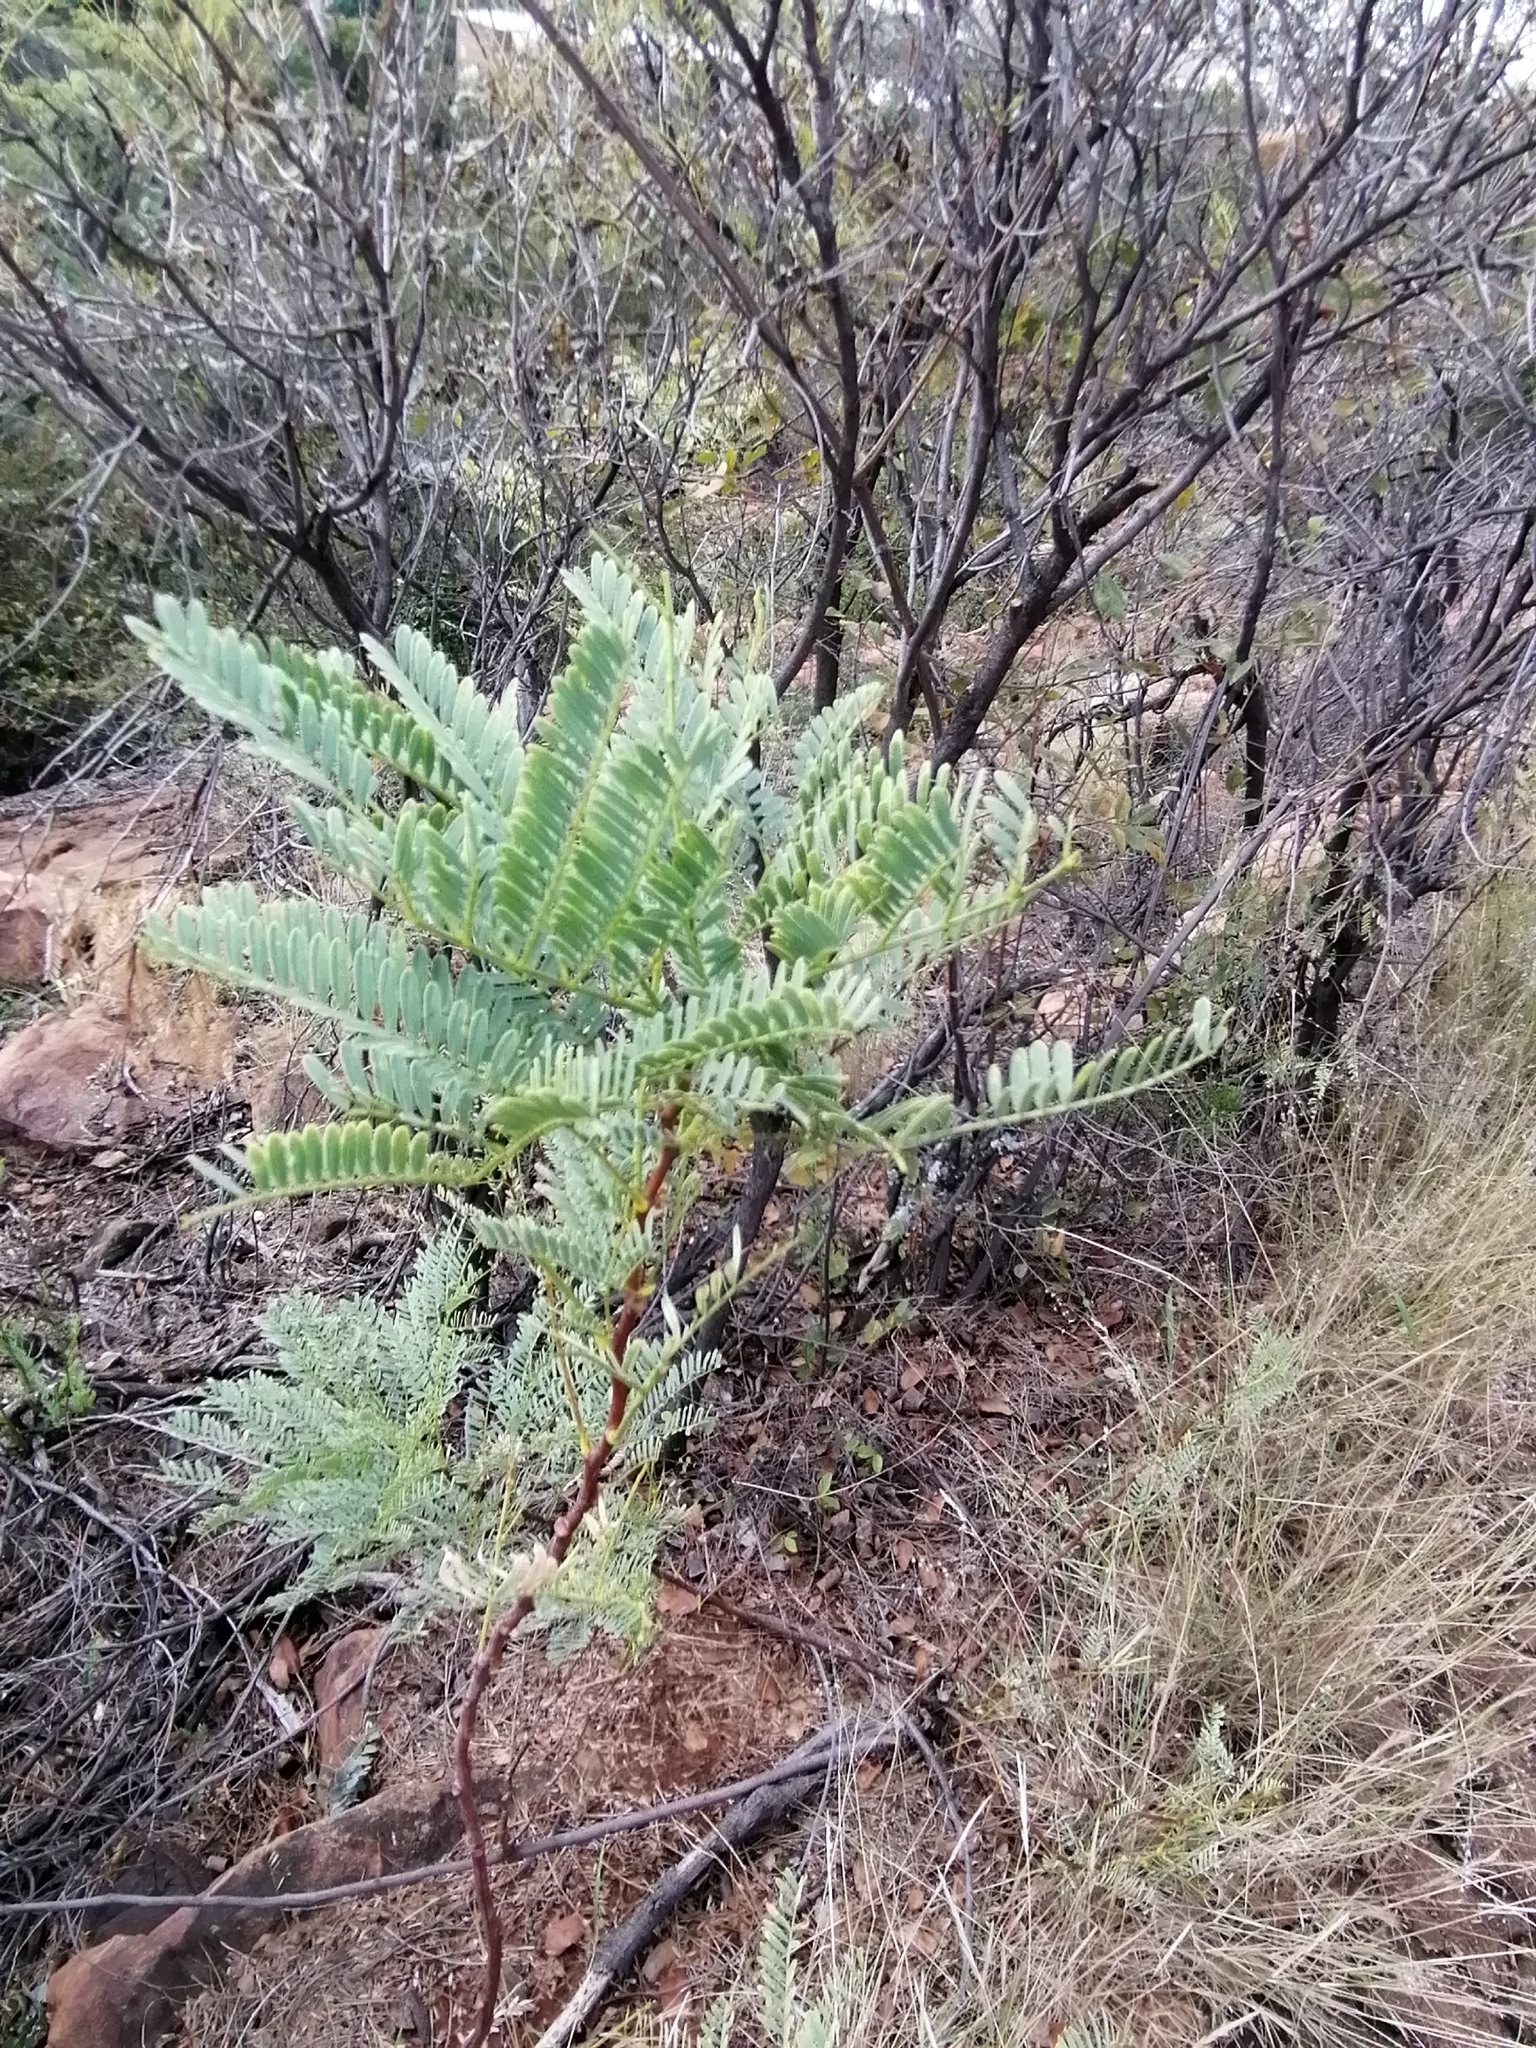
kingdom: Plantae
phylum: Tracheophyta
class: Magnoliopsida
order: Fabales
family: Fabaceae
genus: Elephantorrhiza
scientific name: Elephantorrhiza burkei
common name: Broad-pod elephant-root
